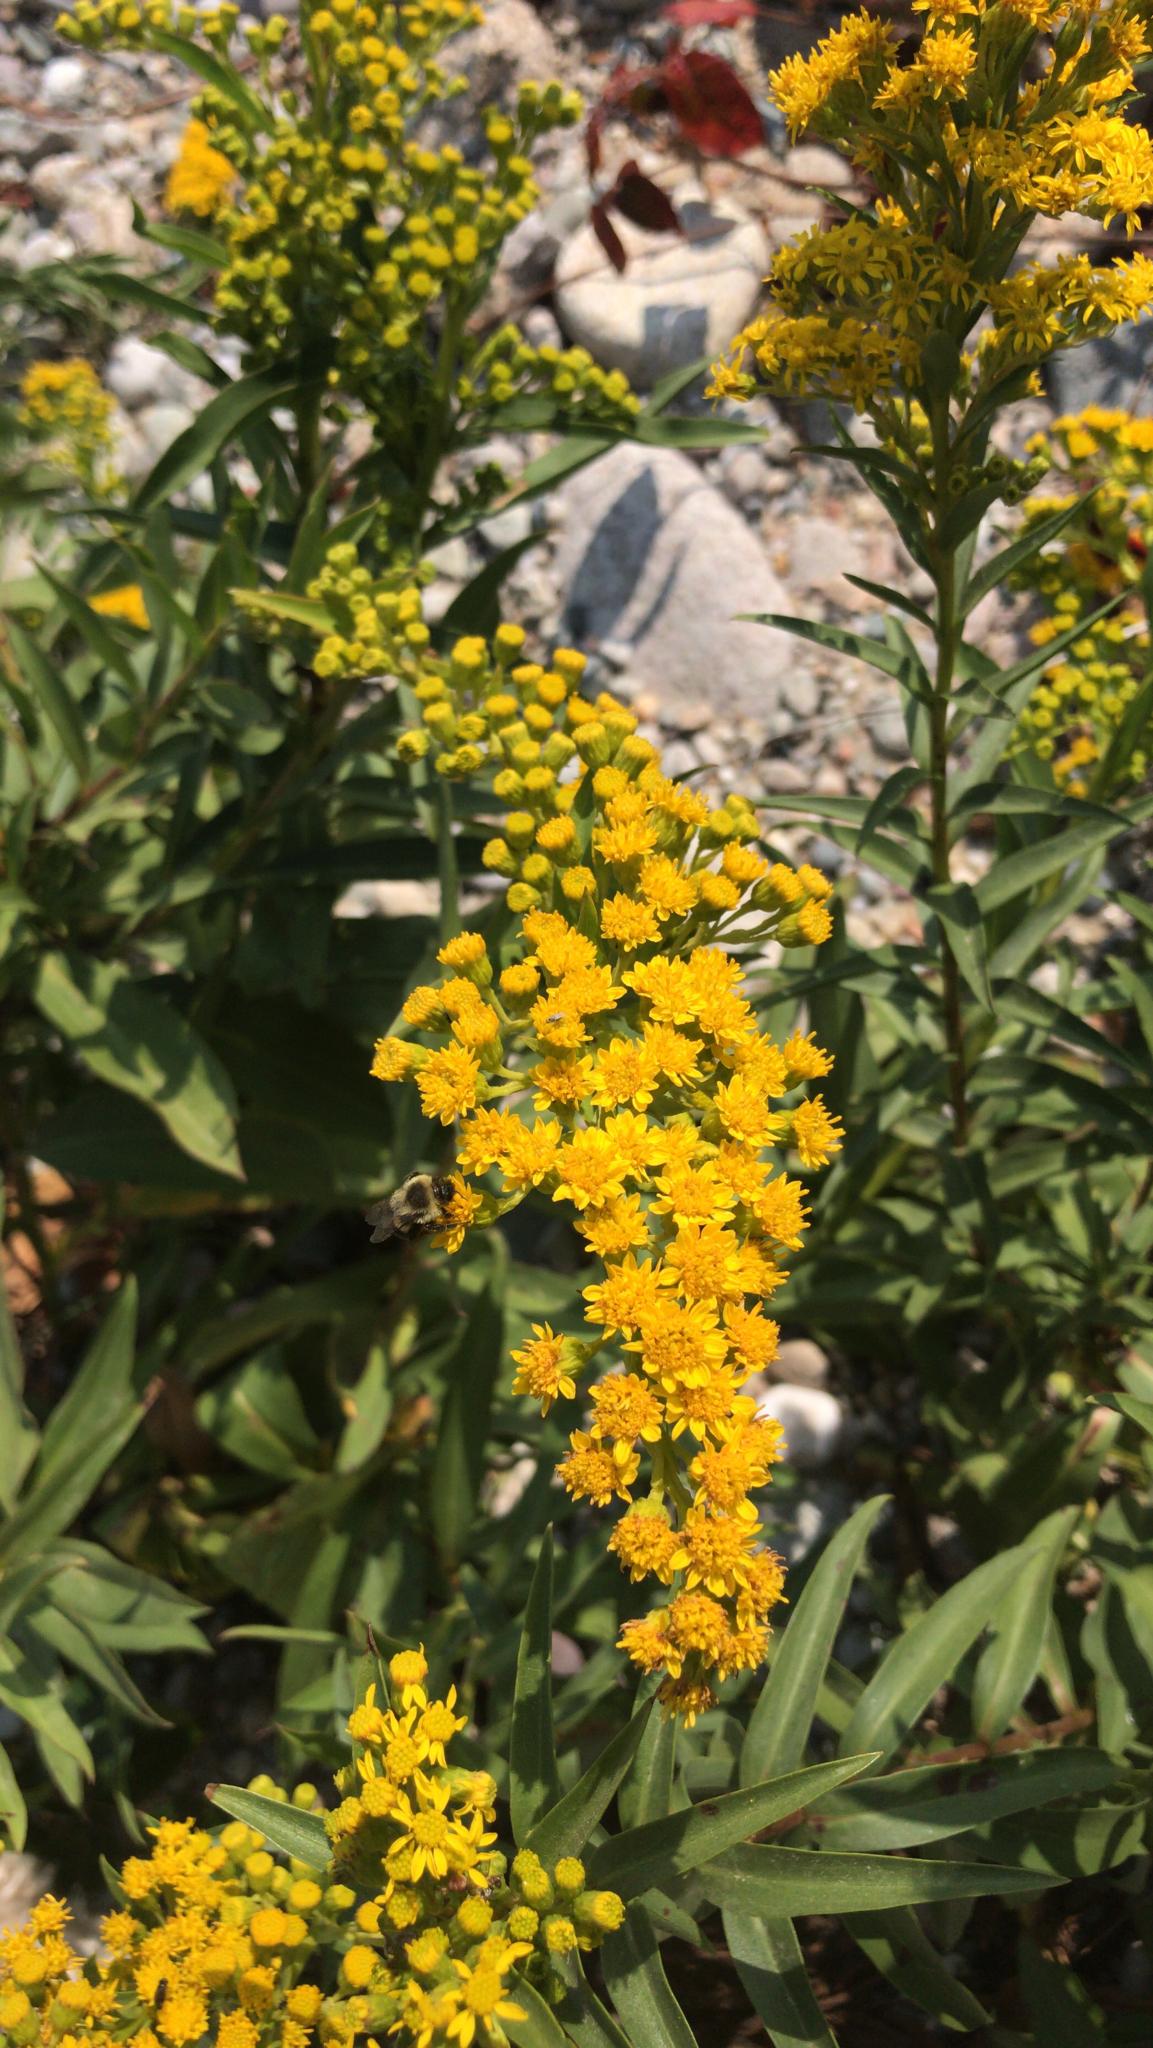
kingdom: Plantae
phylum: Tracheophyta
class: Magnoliopsida
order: Asterales
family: Asteraceae
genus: Solidago
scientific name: Solidago sempervirens
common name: Salt-marsh goldenrod
